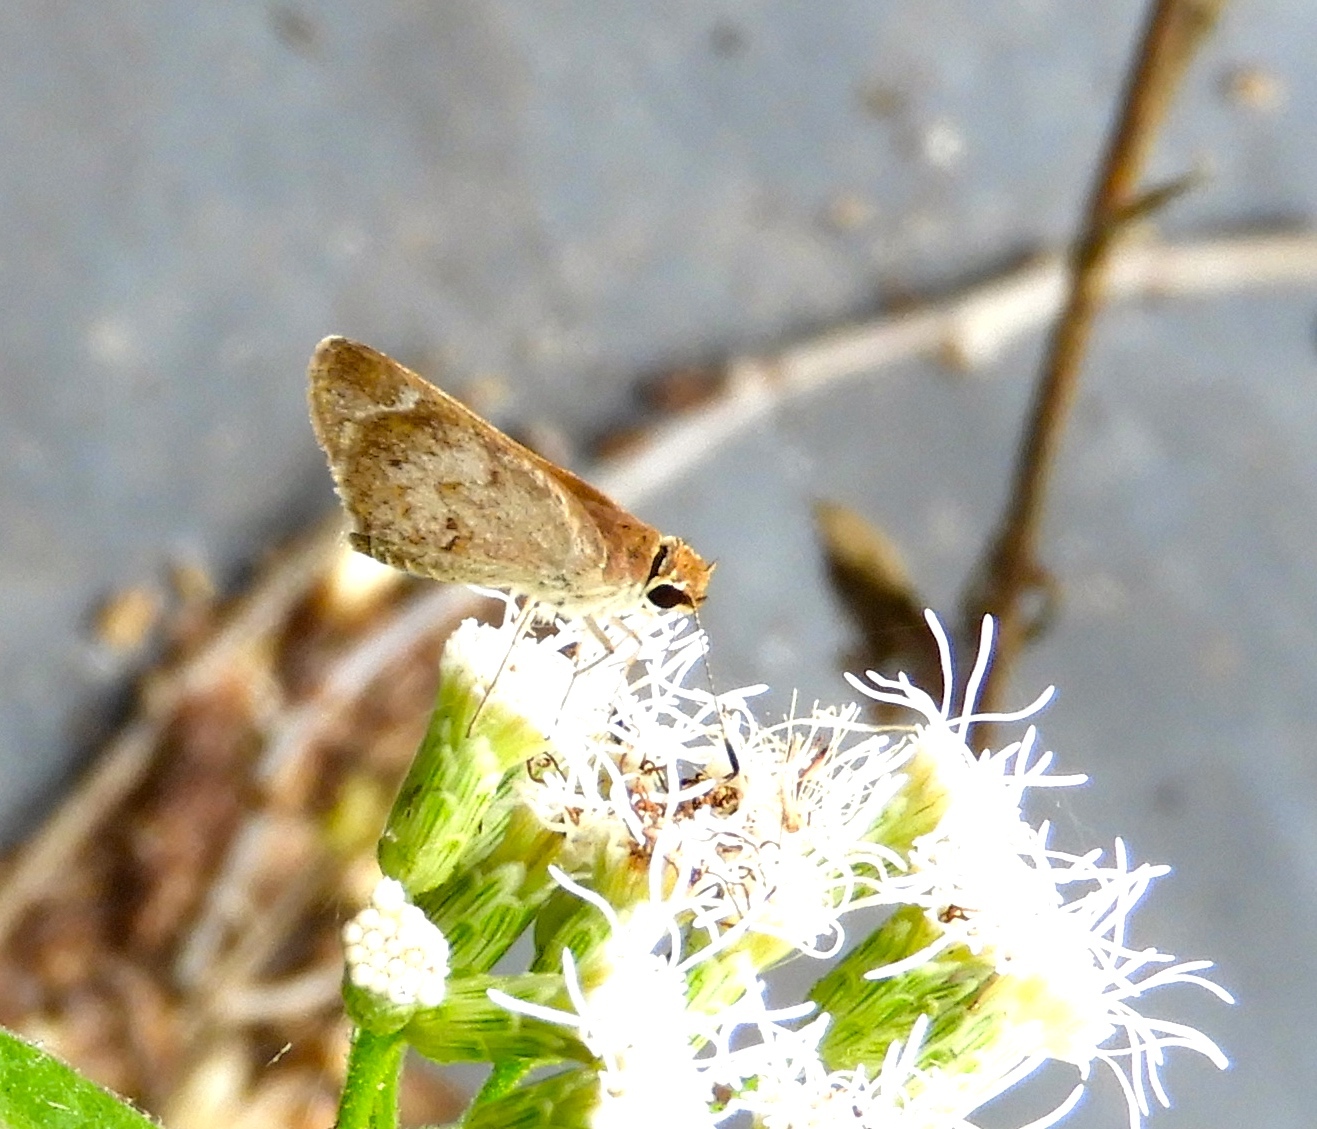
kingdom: Animalia
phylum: Arthropoda
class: Insecta
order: Lepidoptera
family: Hesperiidae
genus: Callimormus
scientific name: Callimormus saturnus
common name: Saturnus skipper
